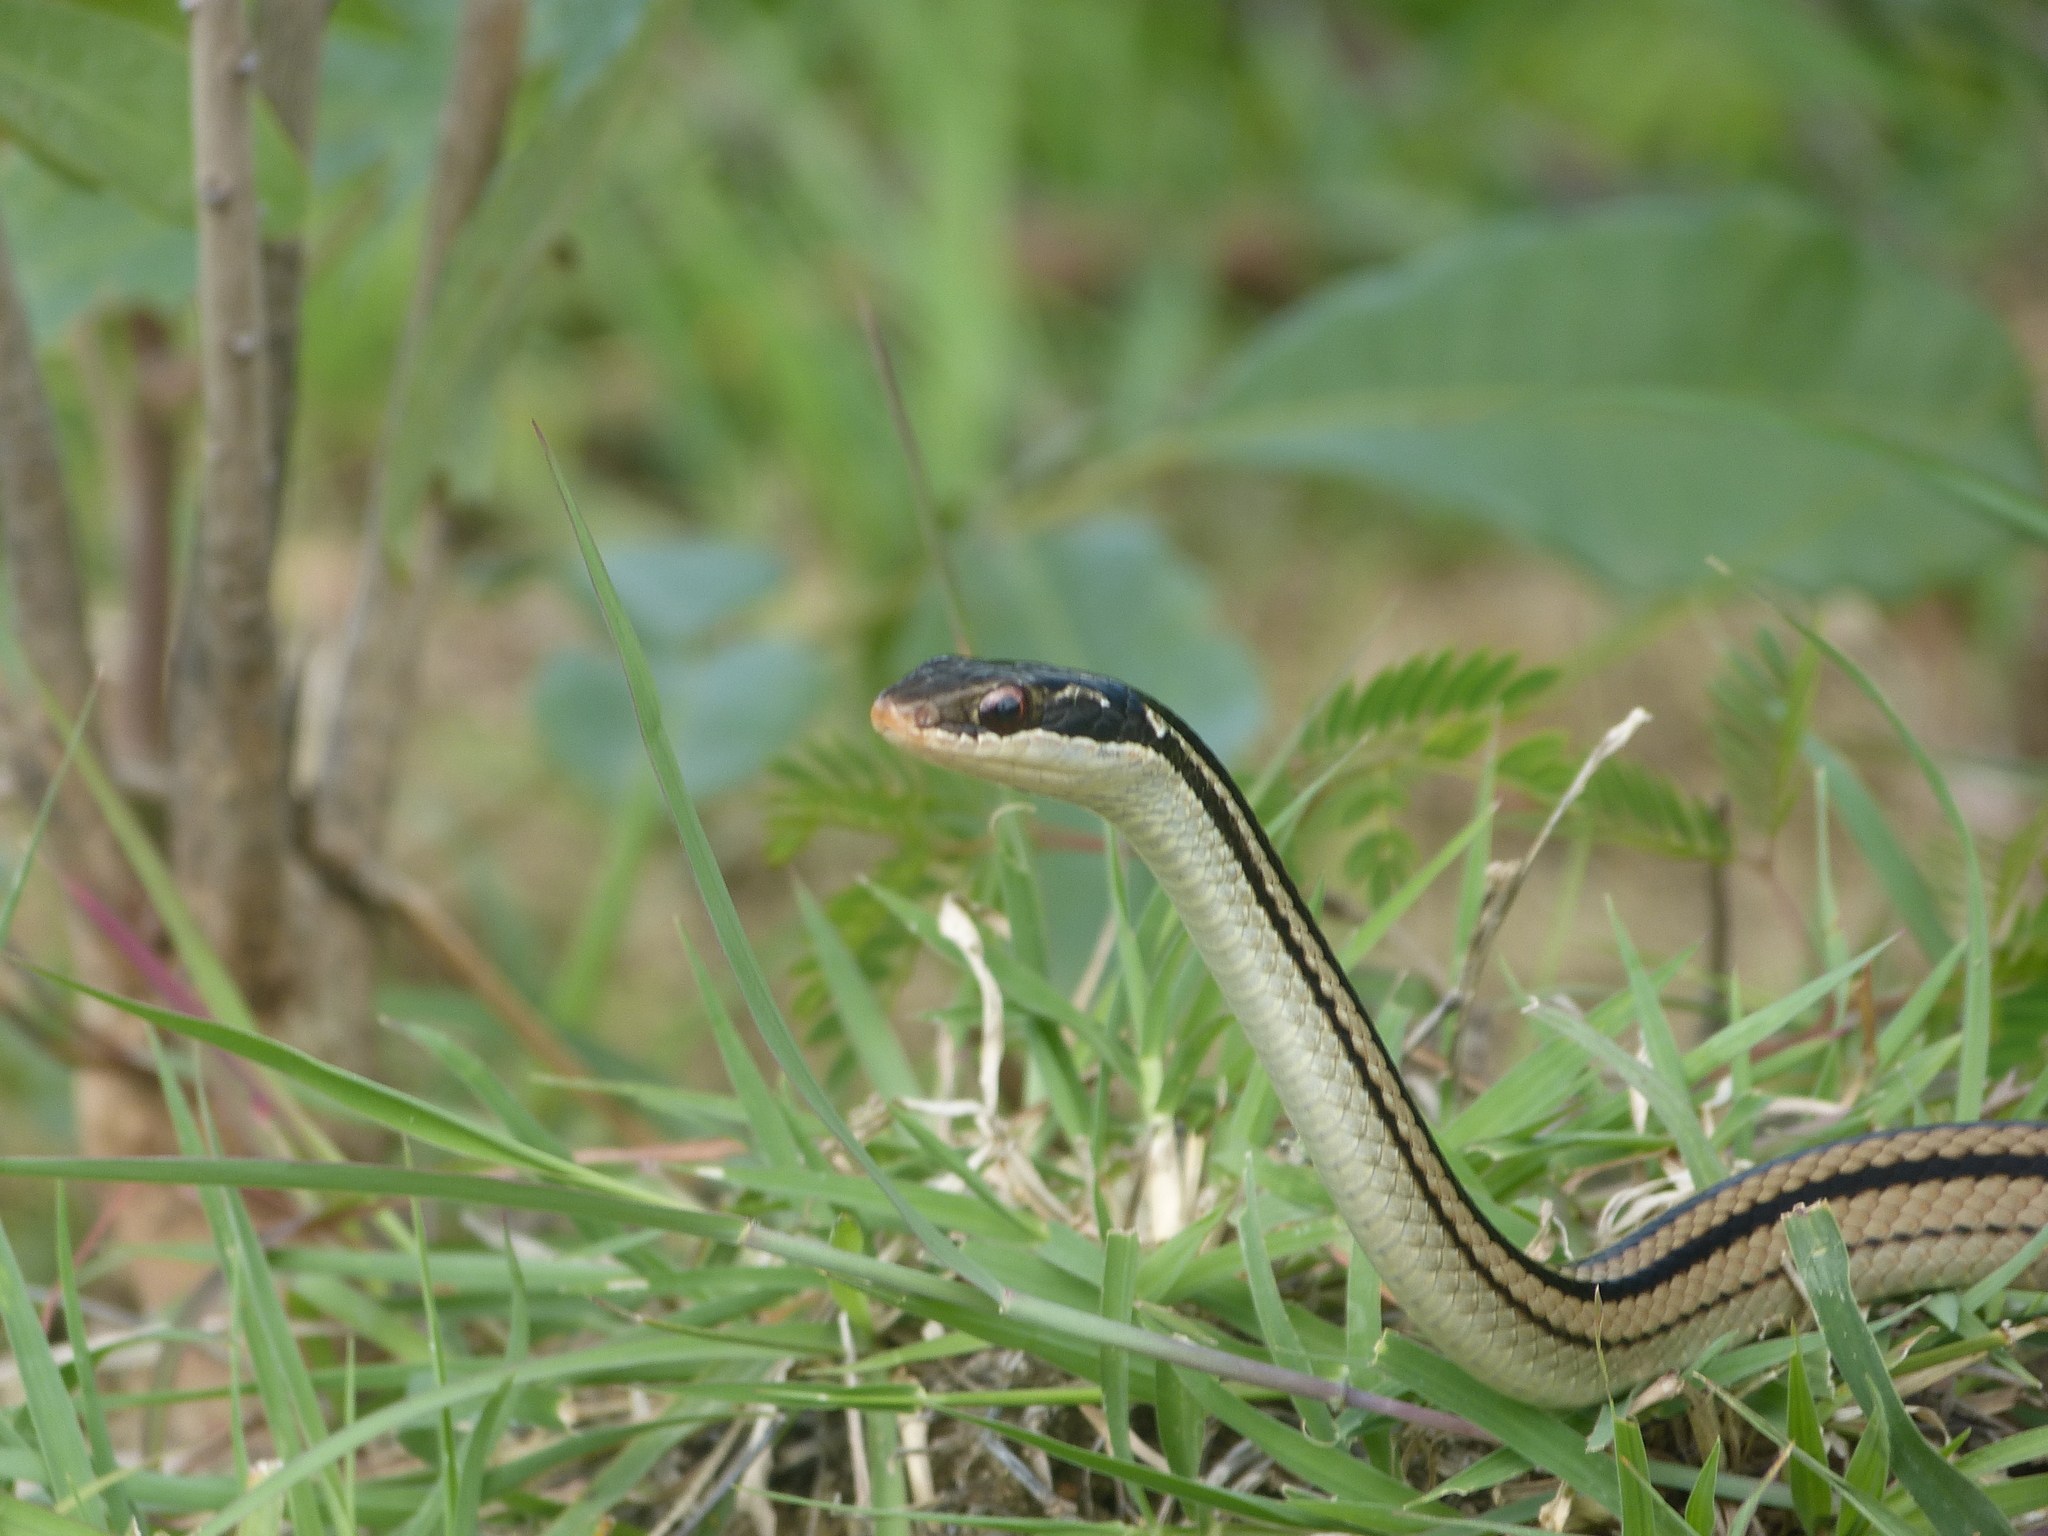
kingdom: Animalia
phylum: Chordata
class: Squamata
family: Pseudoxyrhophiidae
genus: Dromicodryas
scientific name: Dromicodryas quadrilineatus
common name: Four-striped snake
